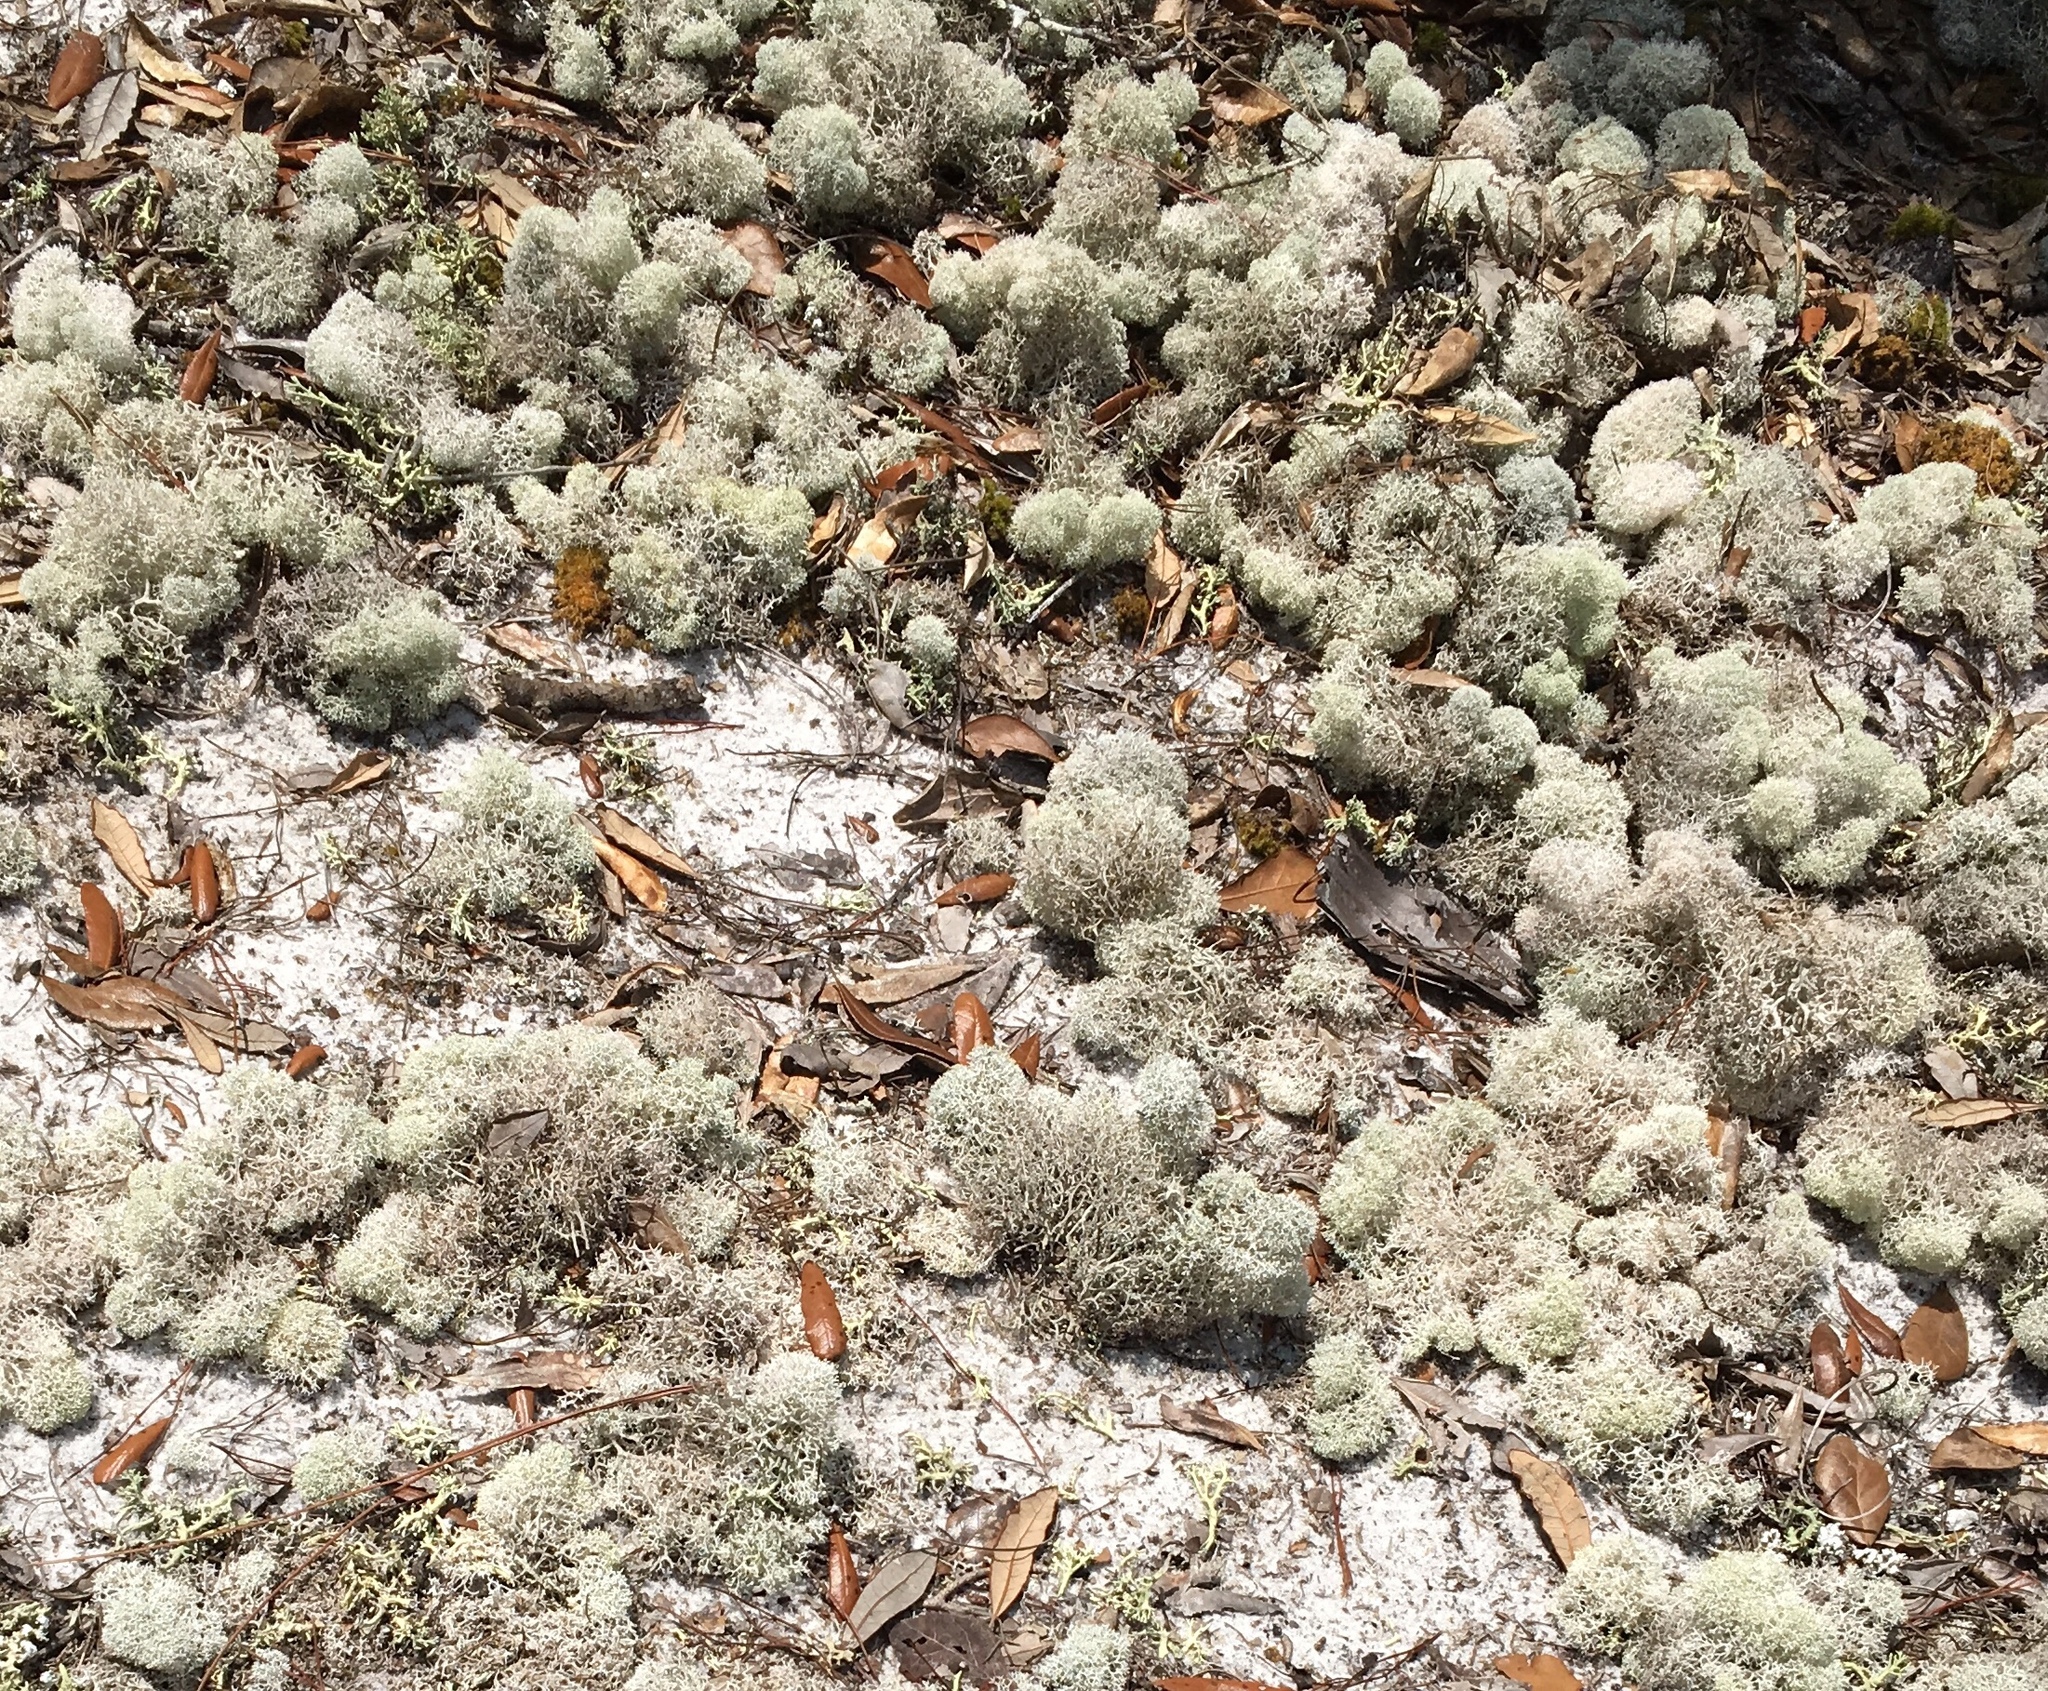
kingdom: Fungi
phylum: Ascomycota
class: Lecanoromycetes
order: Lecanorales
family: Cladoniaceae
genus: Cladonia
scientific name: Cladonia evansii
